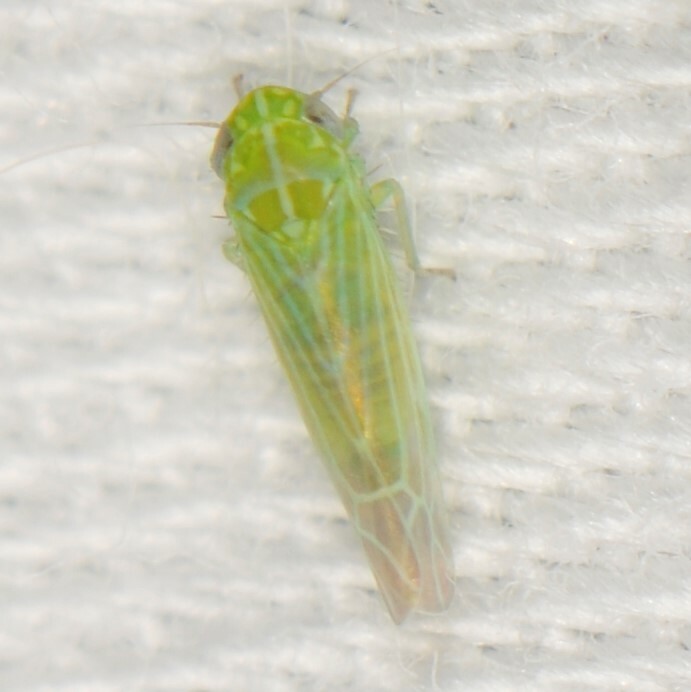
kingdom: Animalia
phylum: Arthropoda
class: Insecta
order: Hemiptera
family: Cicadellidae
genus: Hebata
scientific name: Hebata
